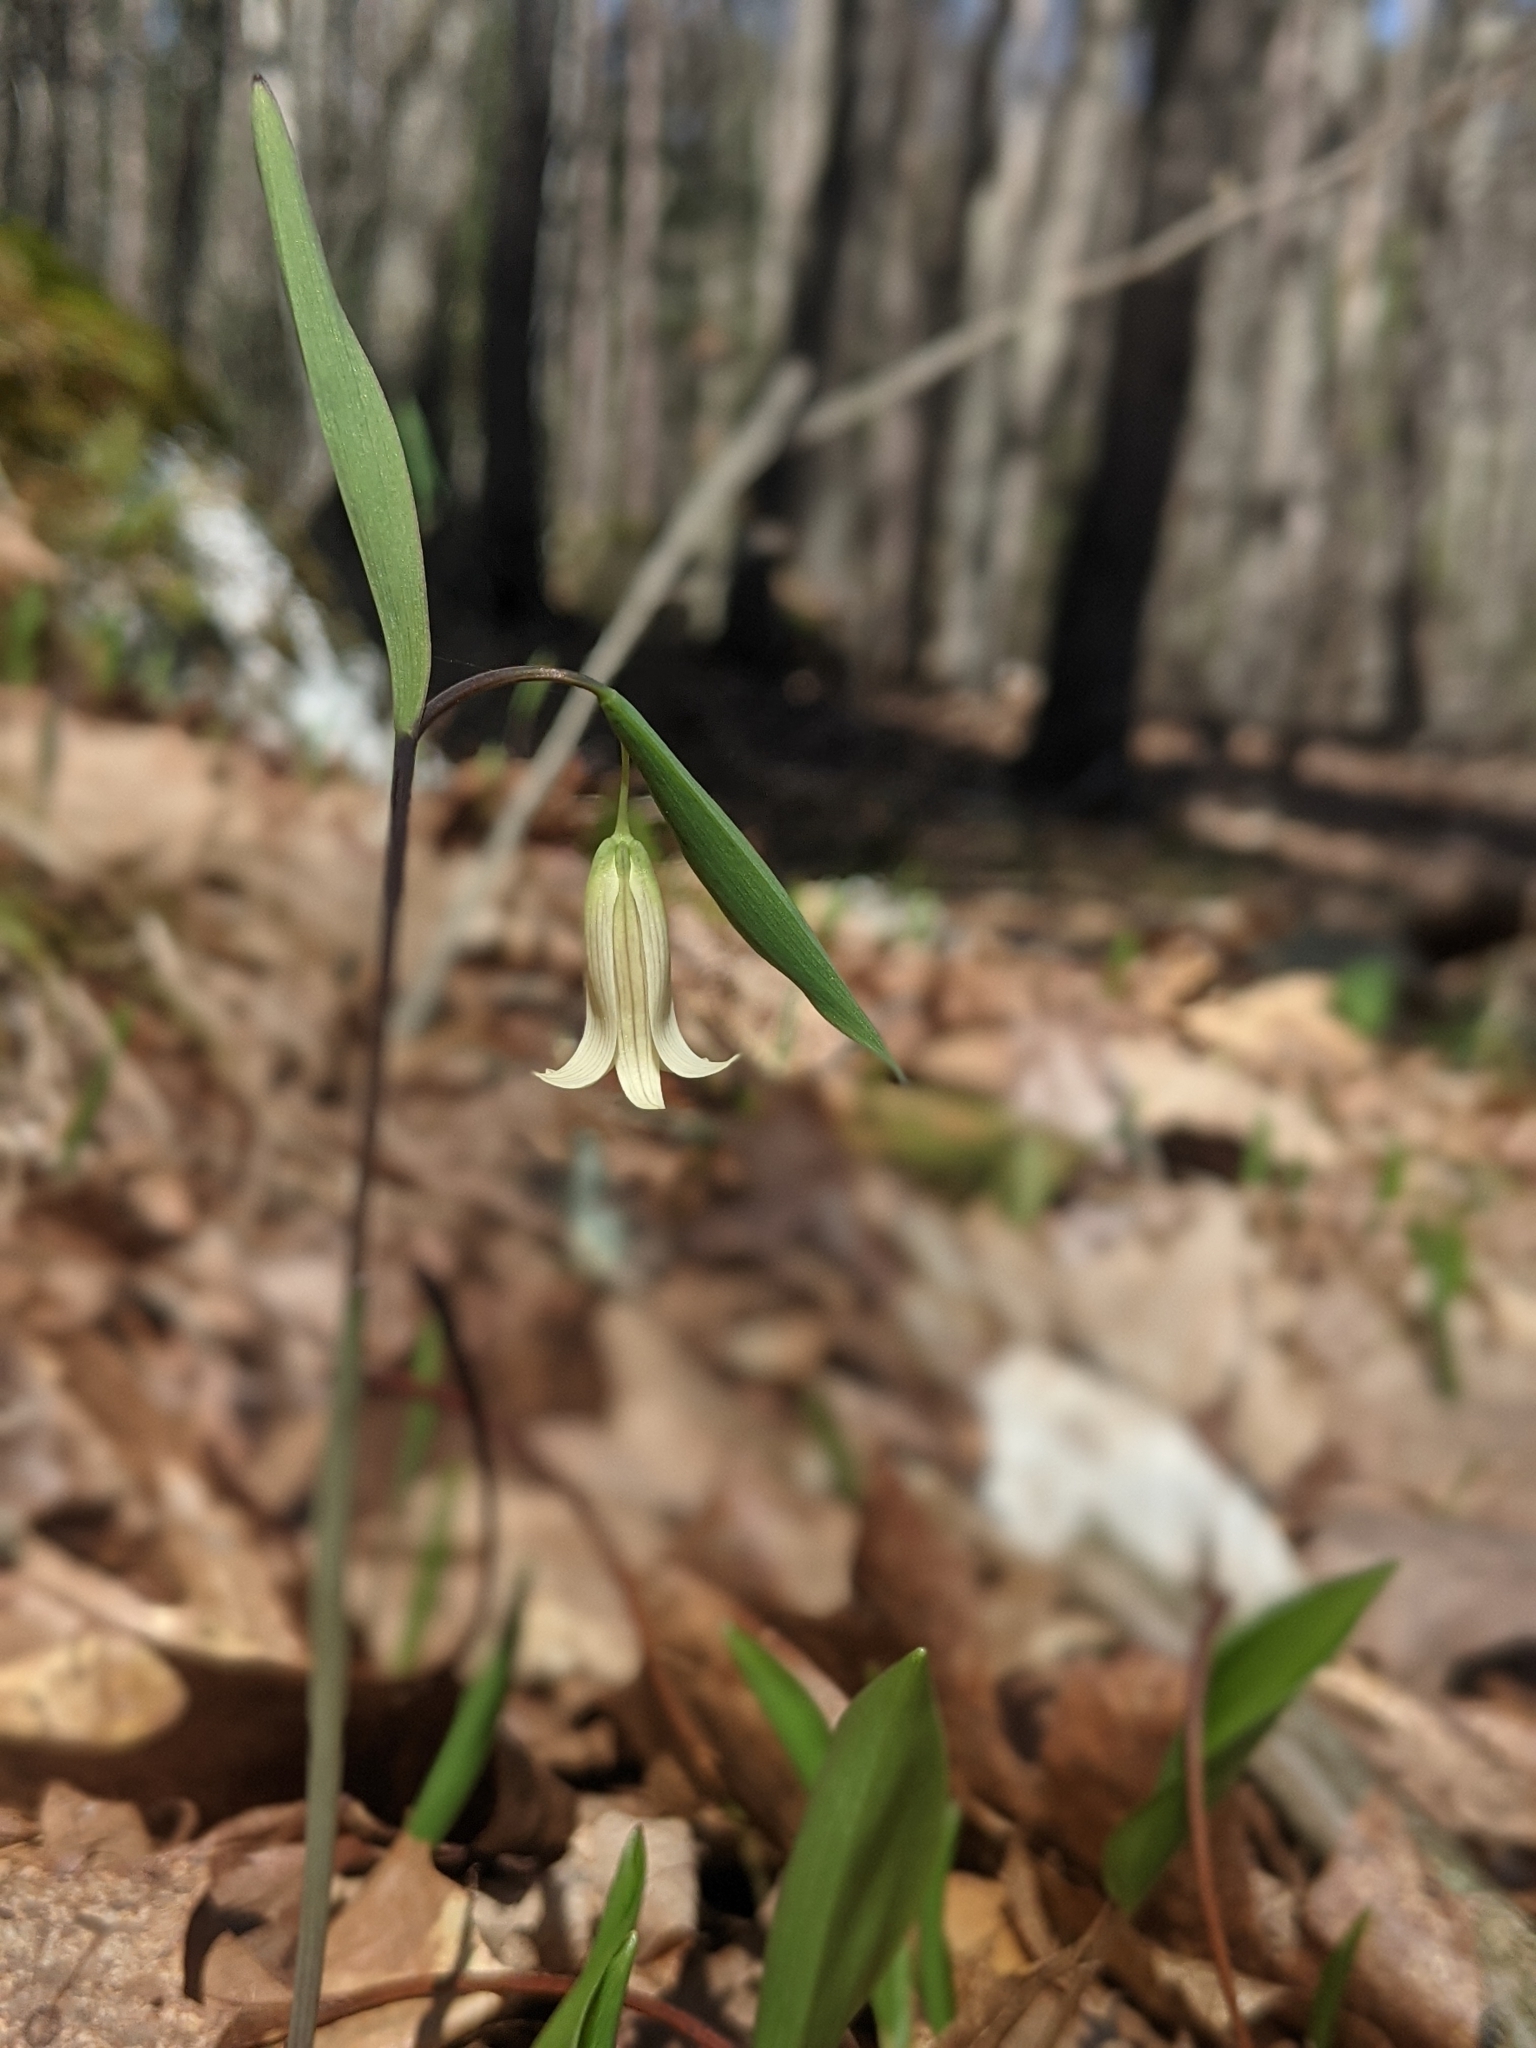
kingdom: Plantae
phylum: Tracheophyta
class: Liliopsida
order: Liliales
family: Colchicaceae
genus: Uvularia
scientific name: Uvularia sessilifolia
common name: Straw-lily
